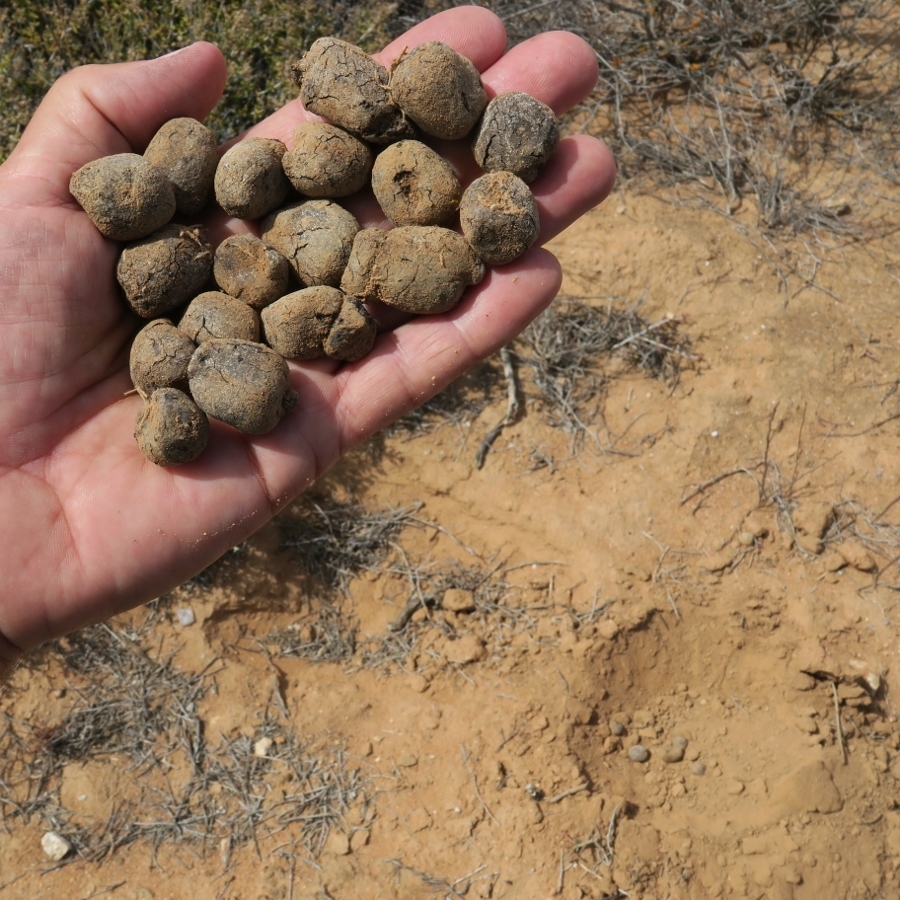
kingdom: Animalia
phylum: Chordata
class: Mammalia
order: Tubulidentata
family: Orycteropodidae
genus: Orycteropus
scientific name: Orycteropus afer
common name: Aardvark
